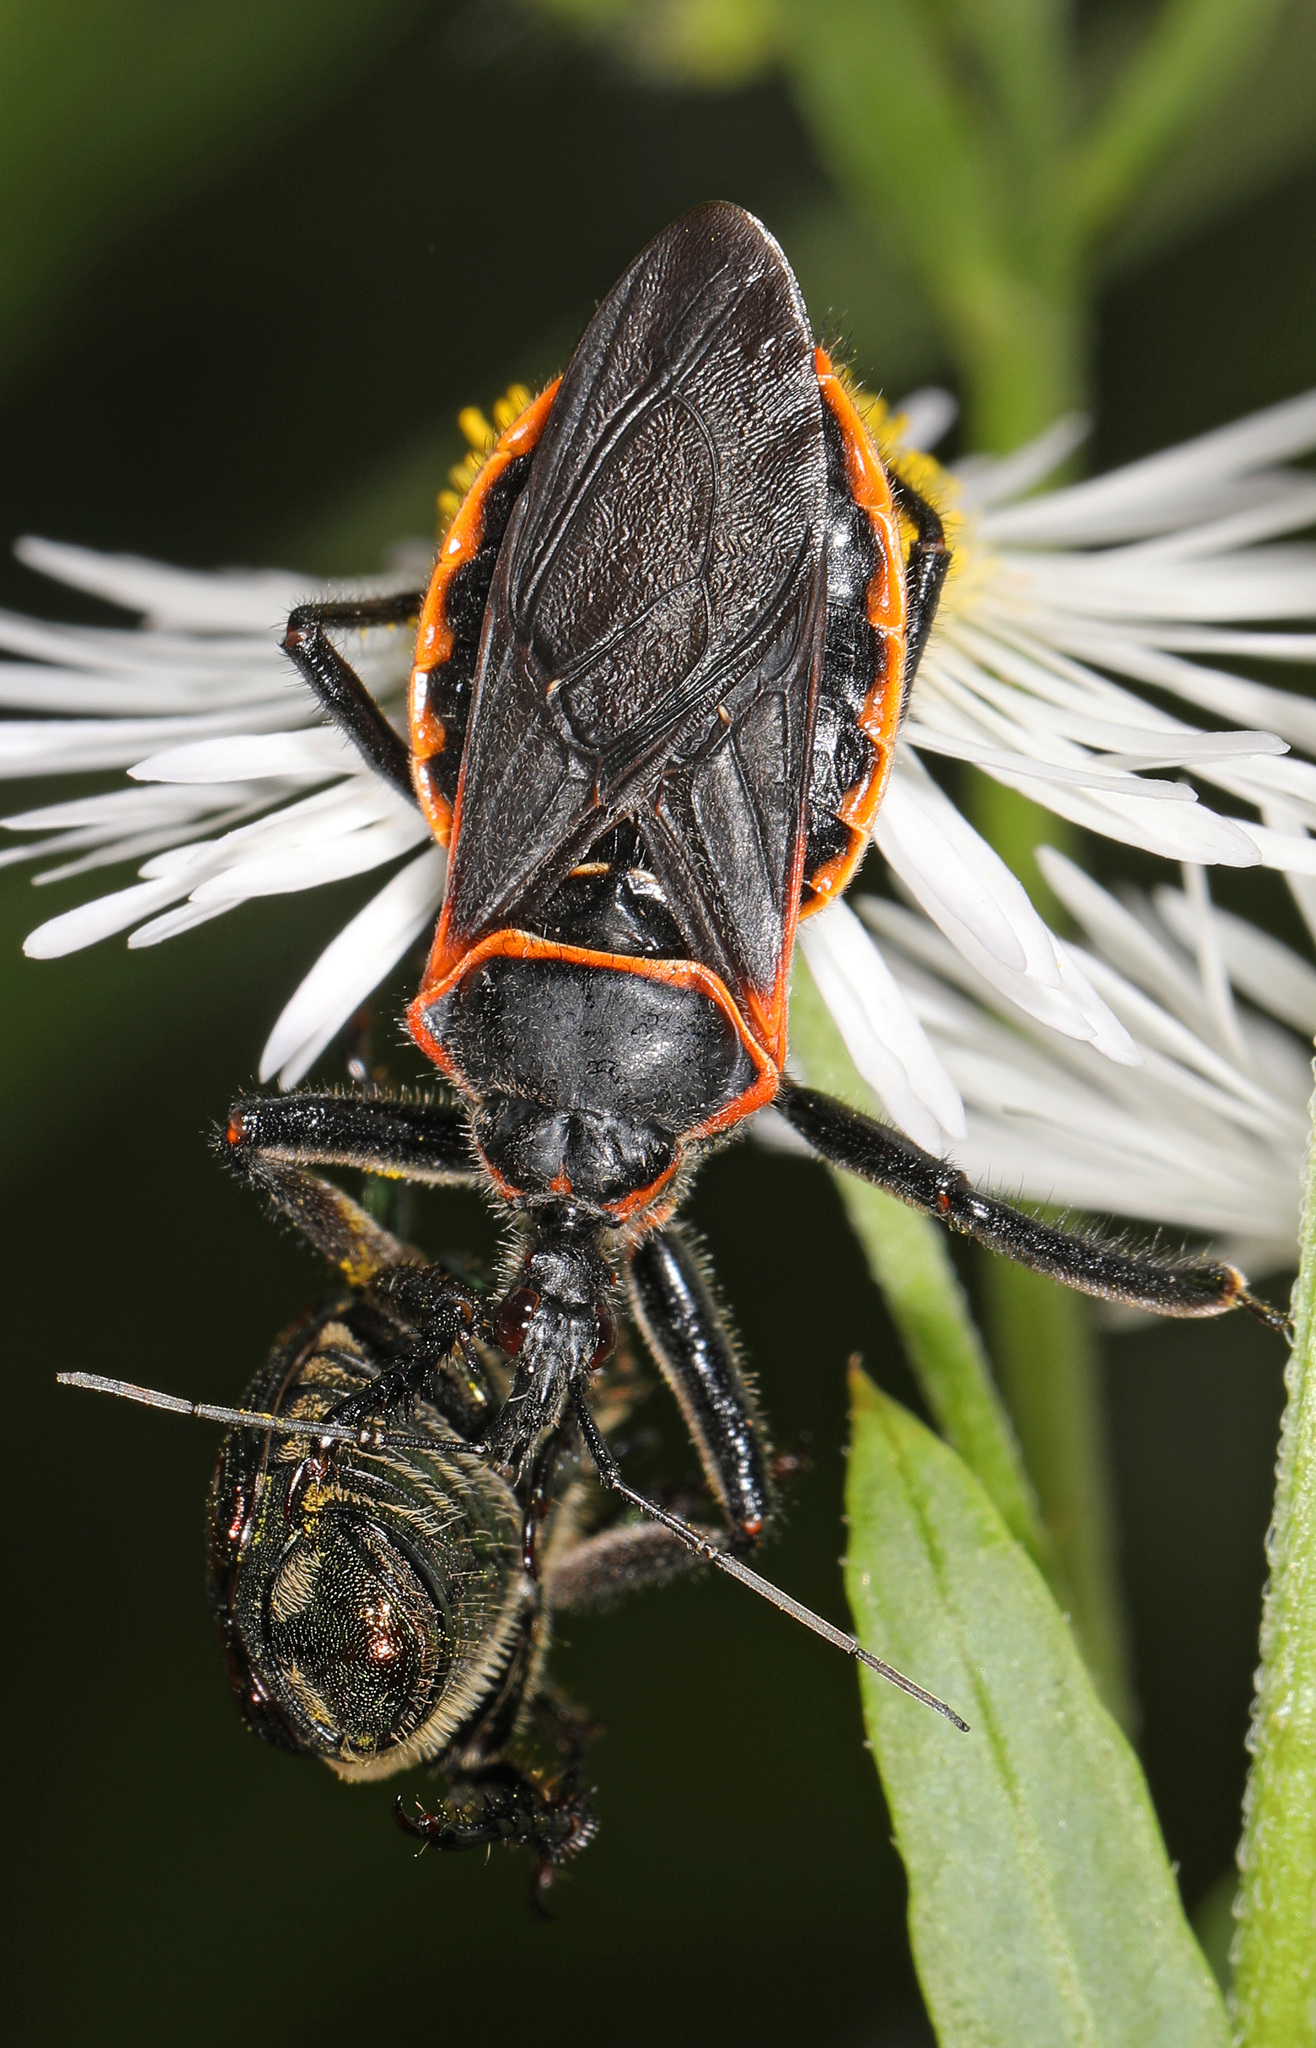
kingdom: Animalia
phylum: Arthropoda
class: Insecta
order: Hemiptera
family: Reduviidae
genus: Apiomerus
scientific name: Apiomerus crassipes
